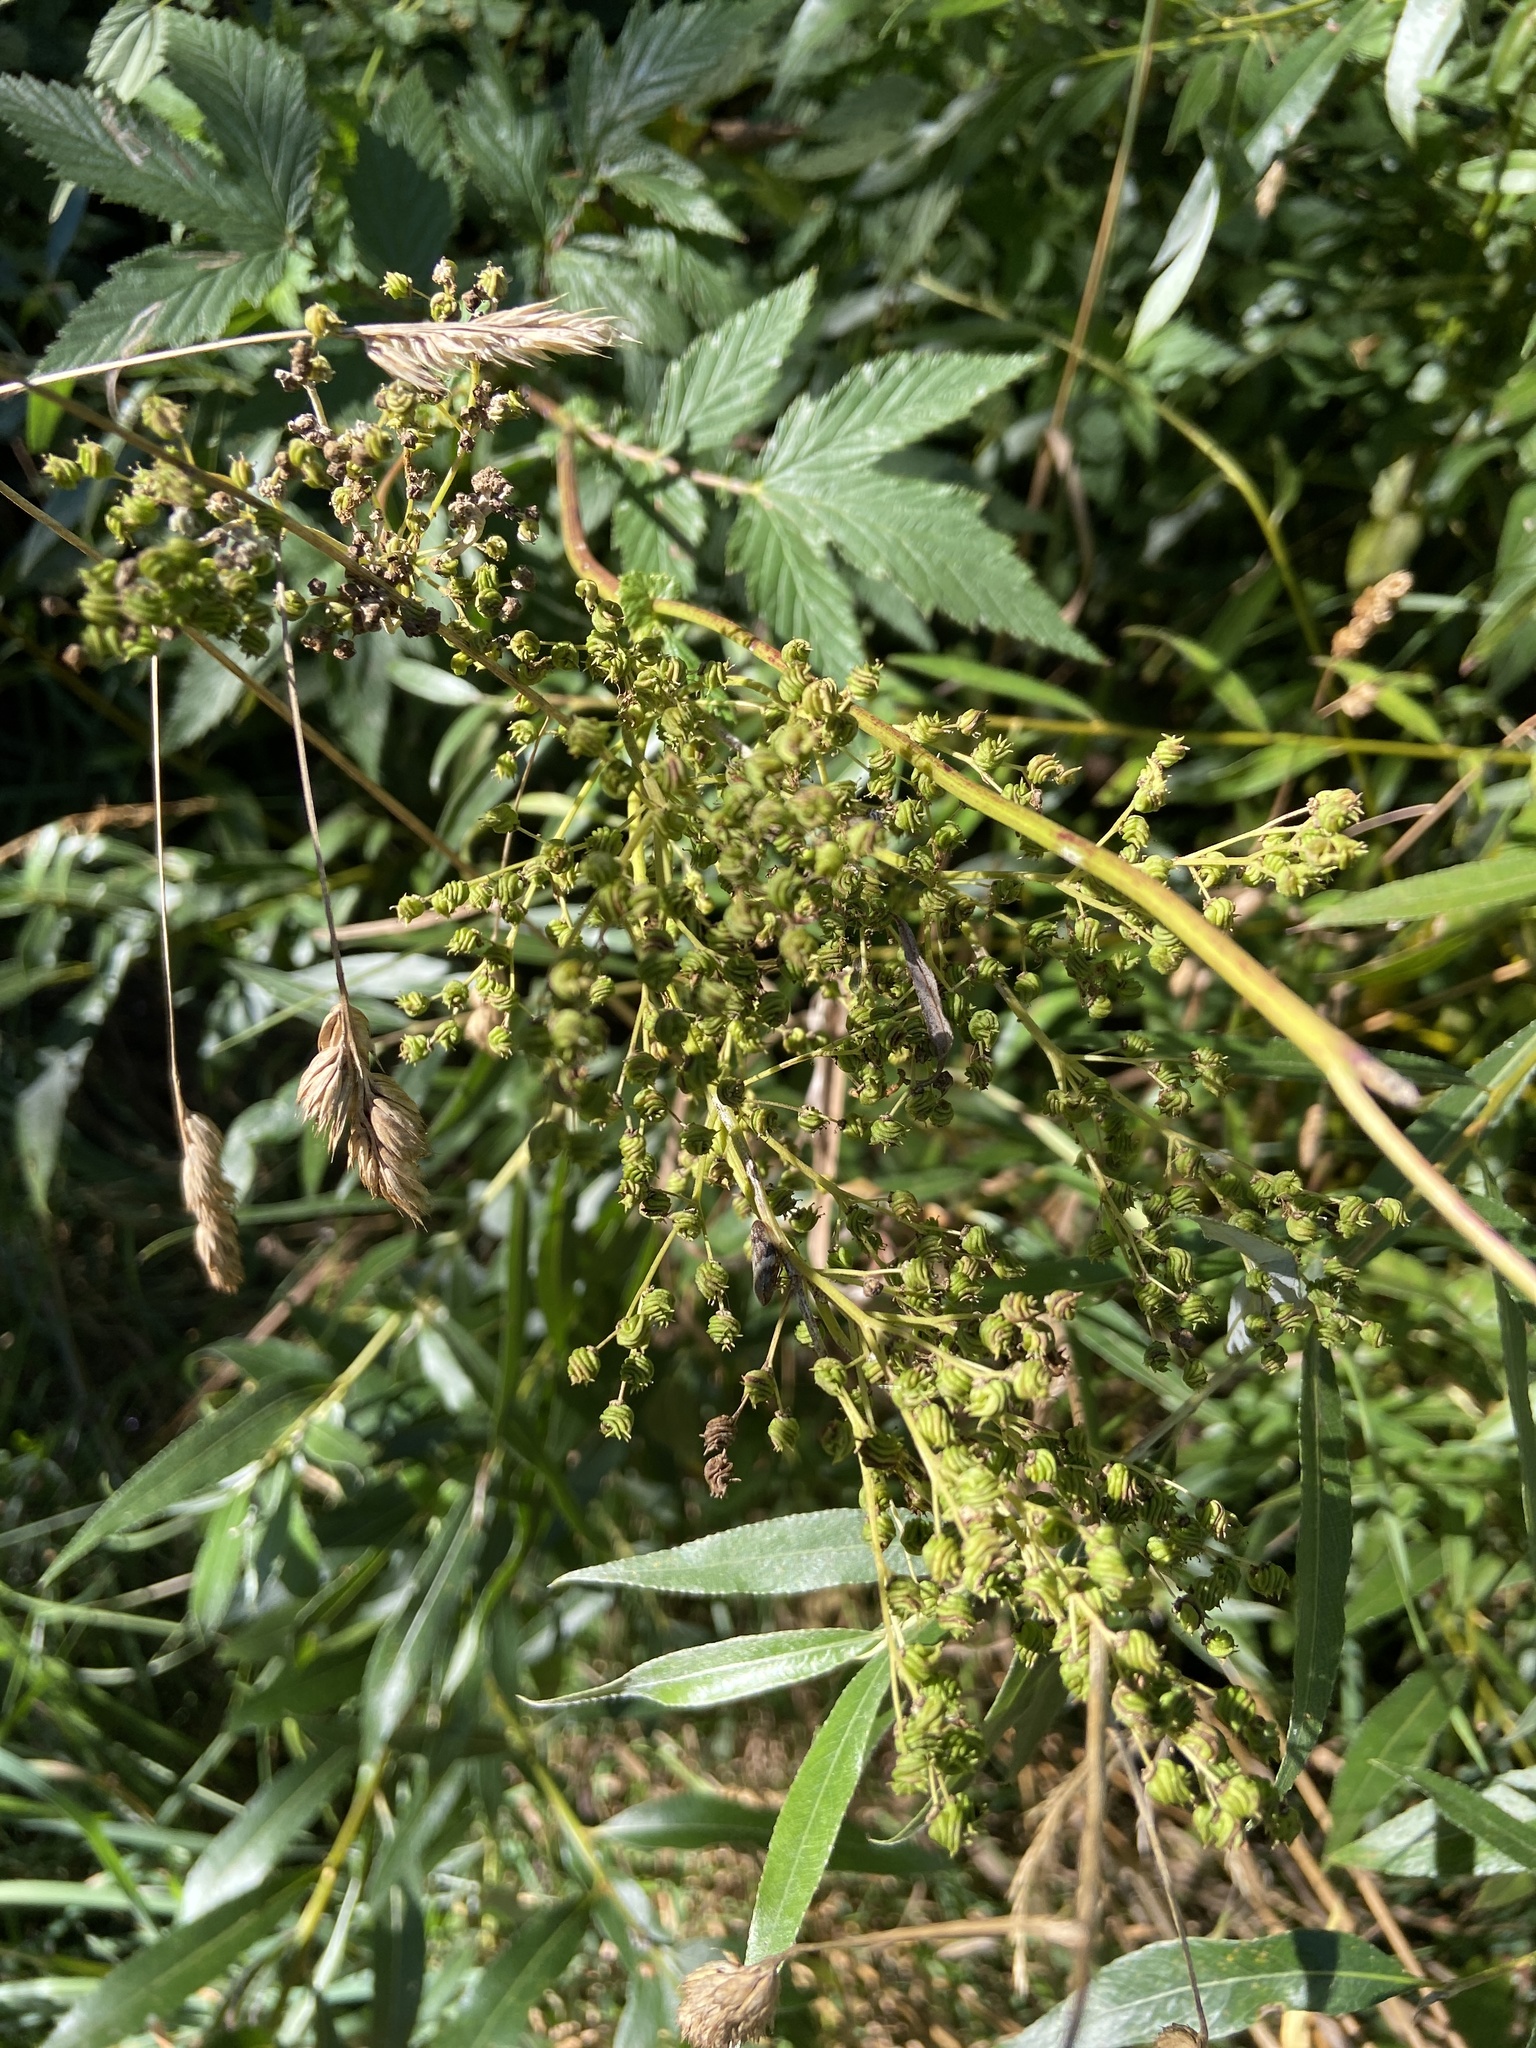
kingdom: Plantae
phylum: Tracheophyta
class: Magnoliopsida
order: Rosales
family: Rosaceae
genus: Filipendula
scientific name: Filipendula ulmaria
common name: Meadowsweet
